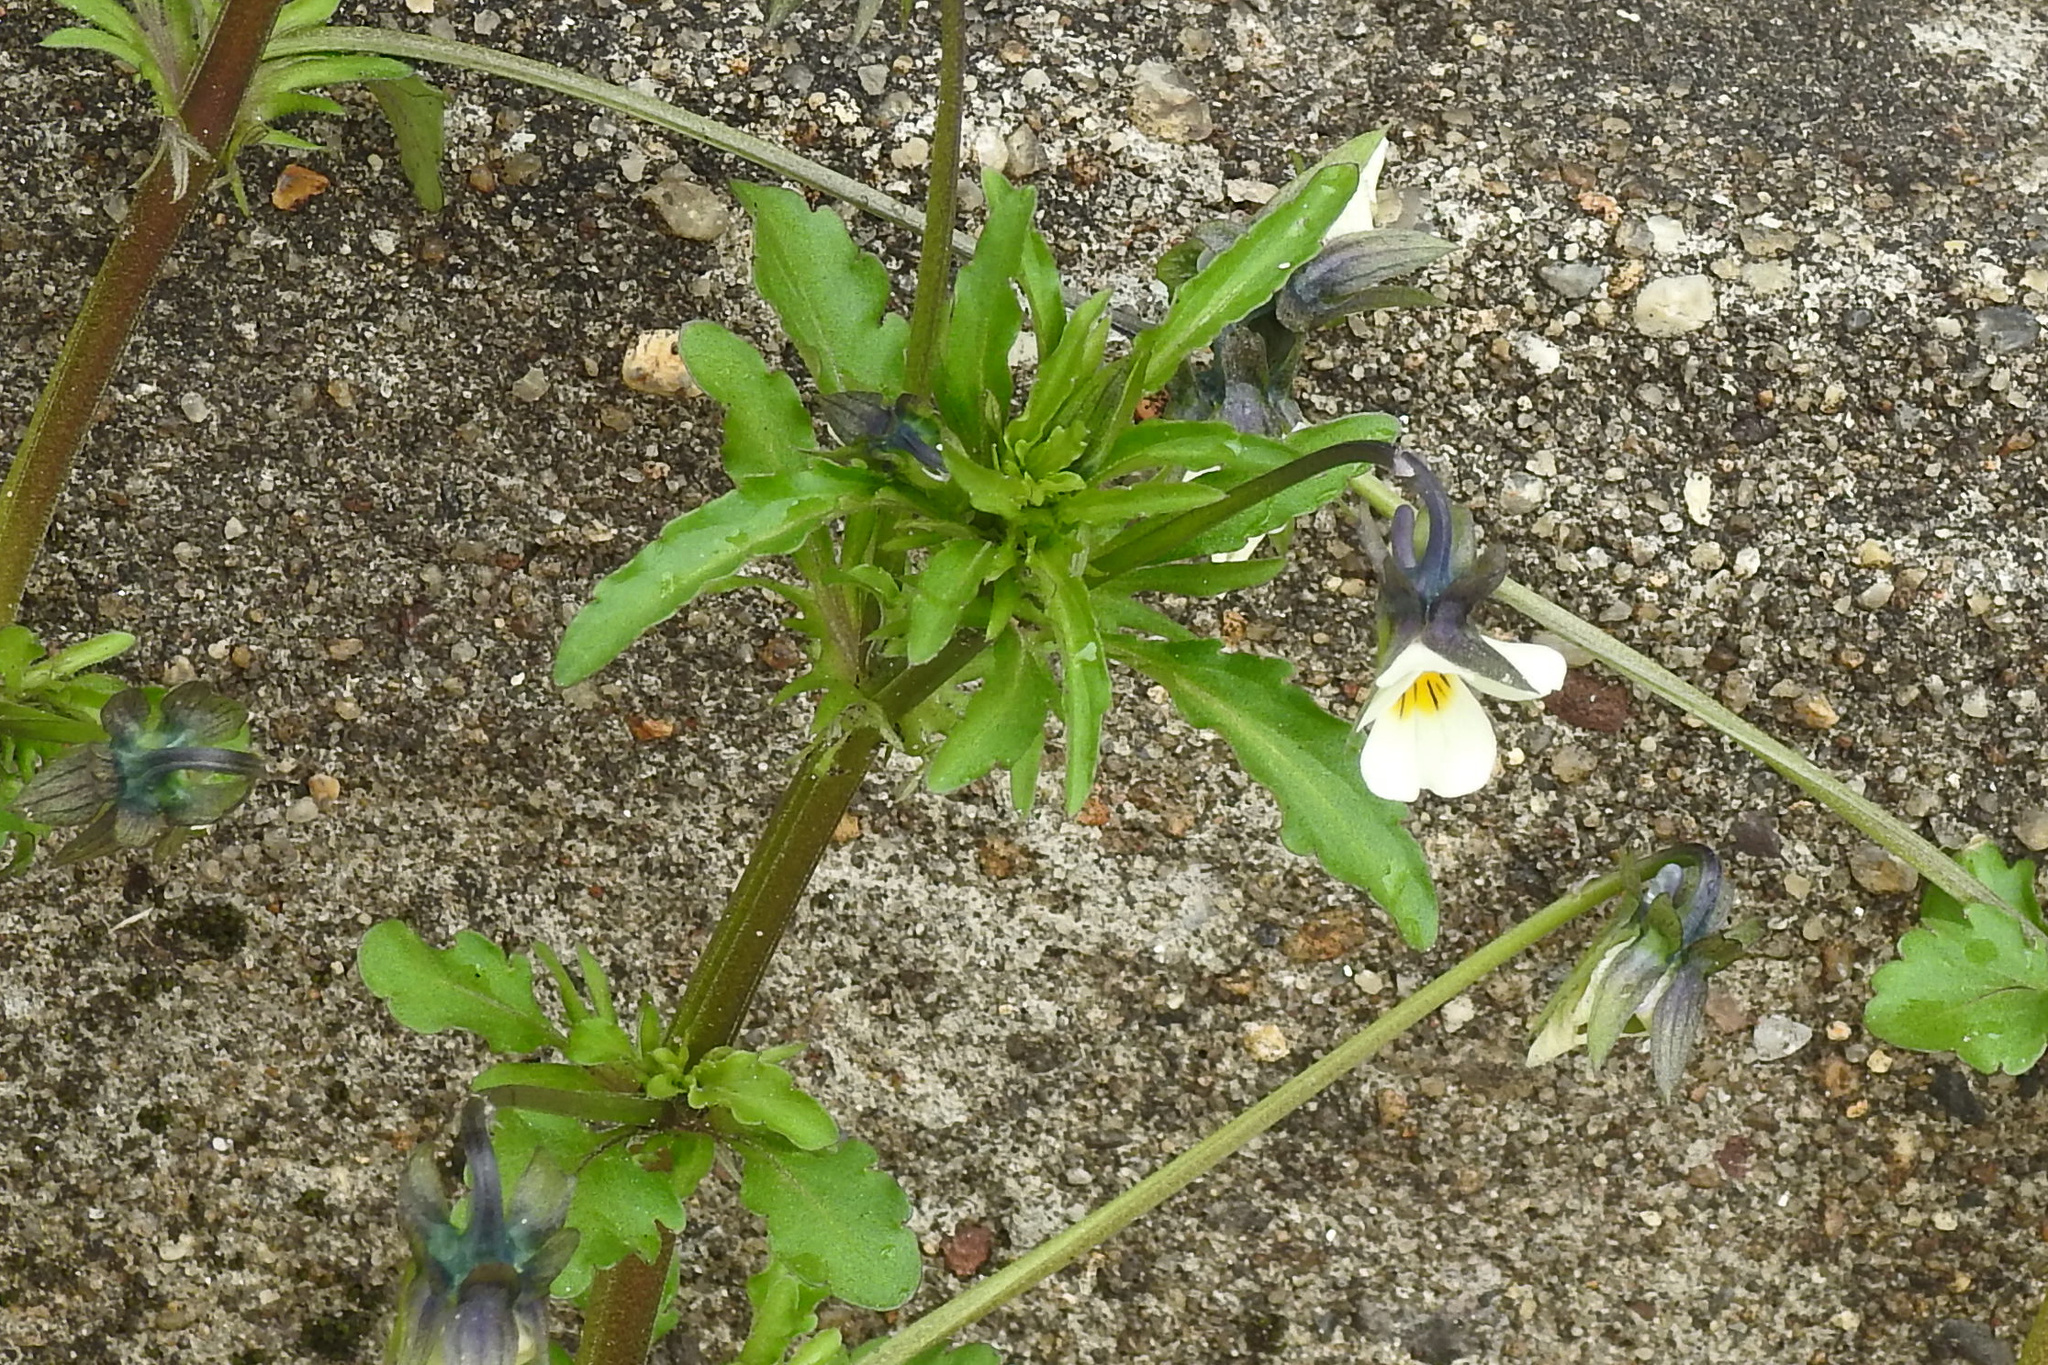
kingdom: Plantae
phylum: Tracheophyta
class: Magnoliopsida
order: Malpighiales
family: Violaceae
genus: Viola
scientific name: Viola arvensis
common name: Field pansy
